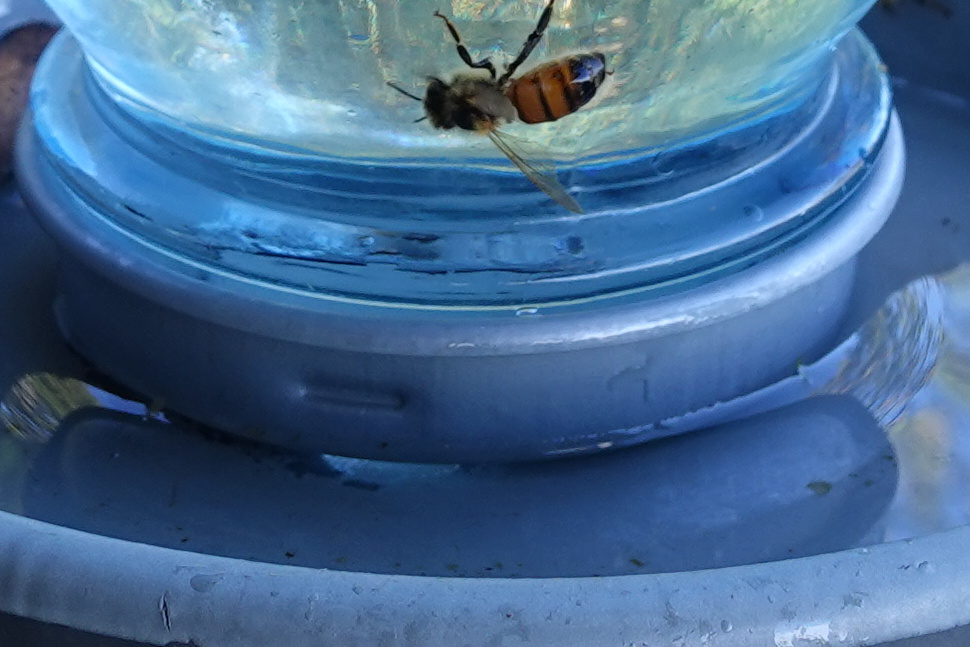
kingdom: Animalia
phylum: Arthropoda
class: Insecta
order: Hymenoptera
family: Apidae
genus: Apis
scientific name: Apis mellifera
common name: Honey bee
